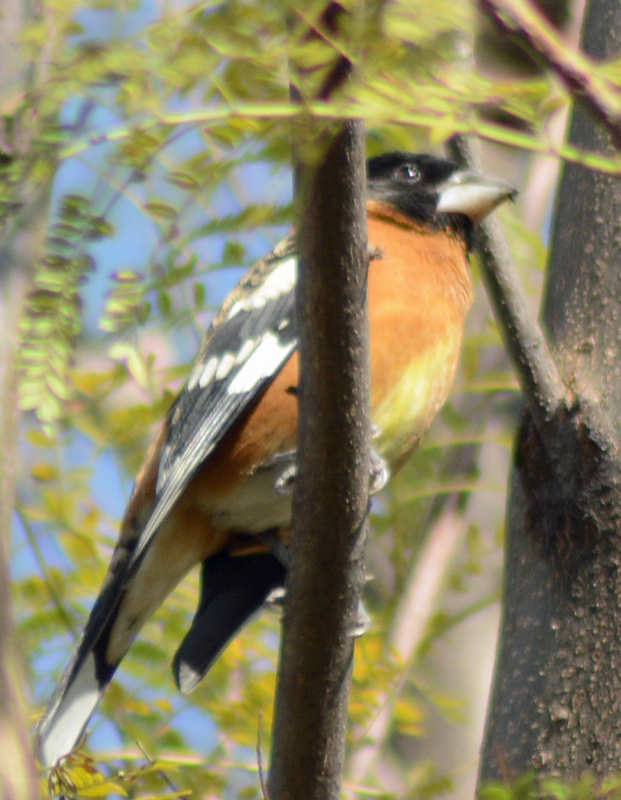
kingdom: Animalia
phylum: Chordata
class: Aves
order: Passeriformes
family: Cardinalidae
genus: Pheucticus
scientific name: Pheucticus melanocephalus
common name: Black-headed grosbeak
